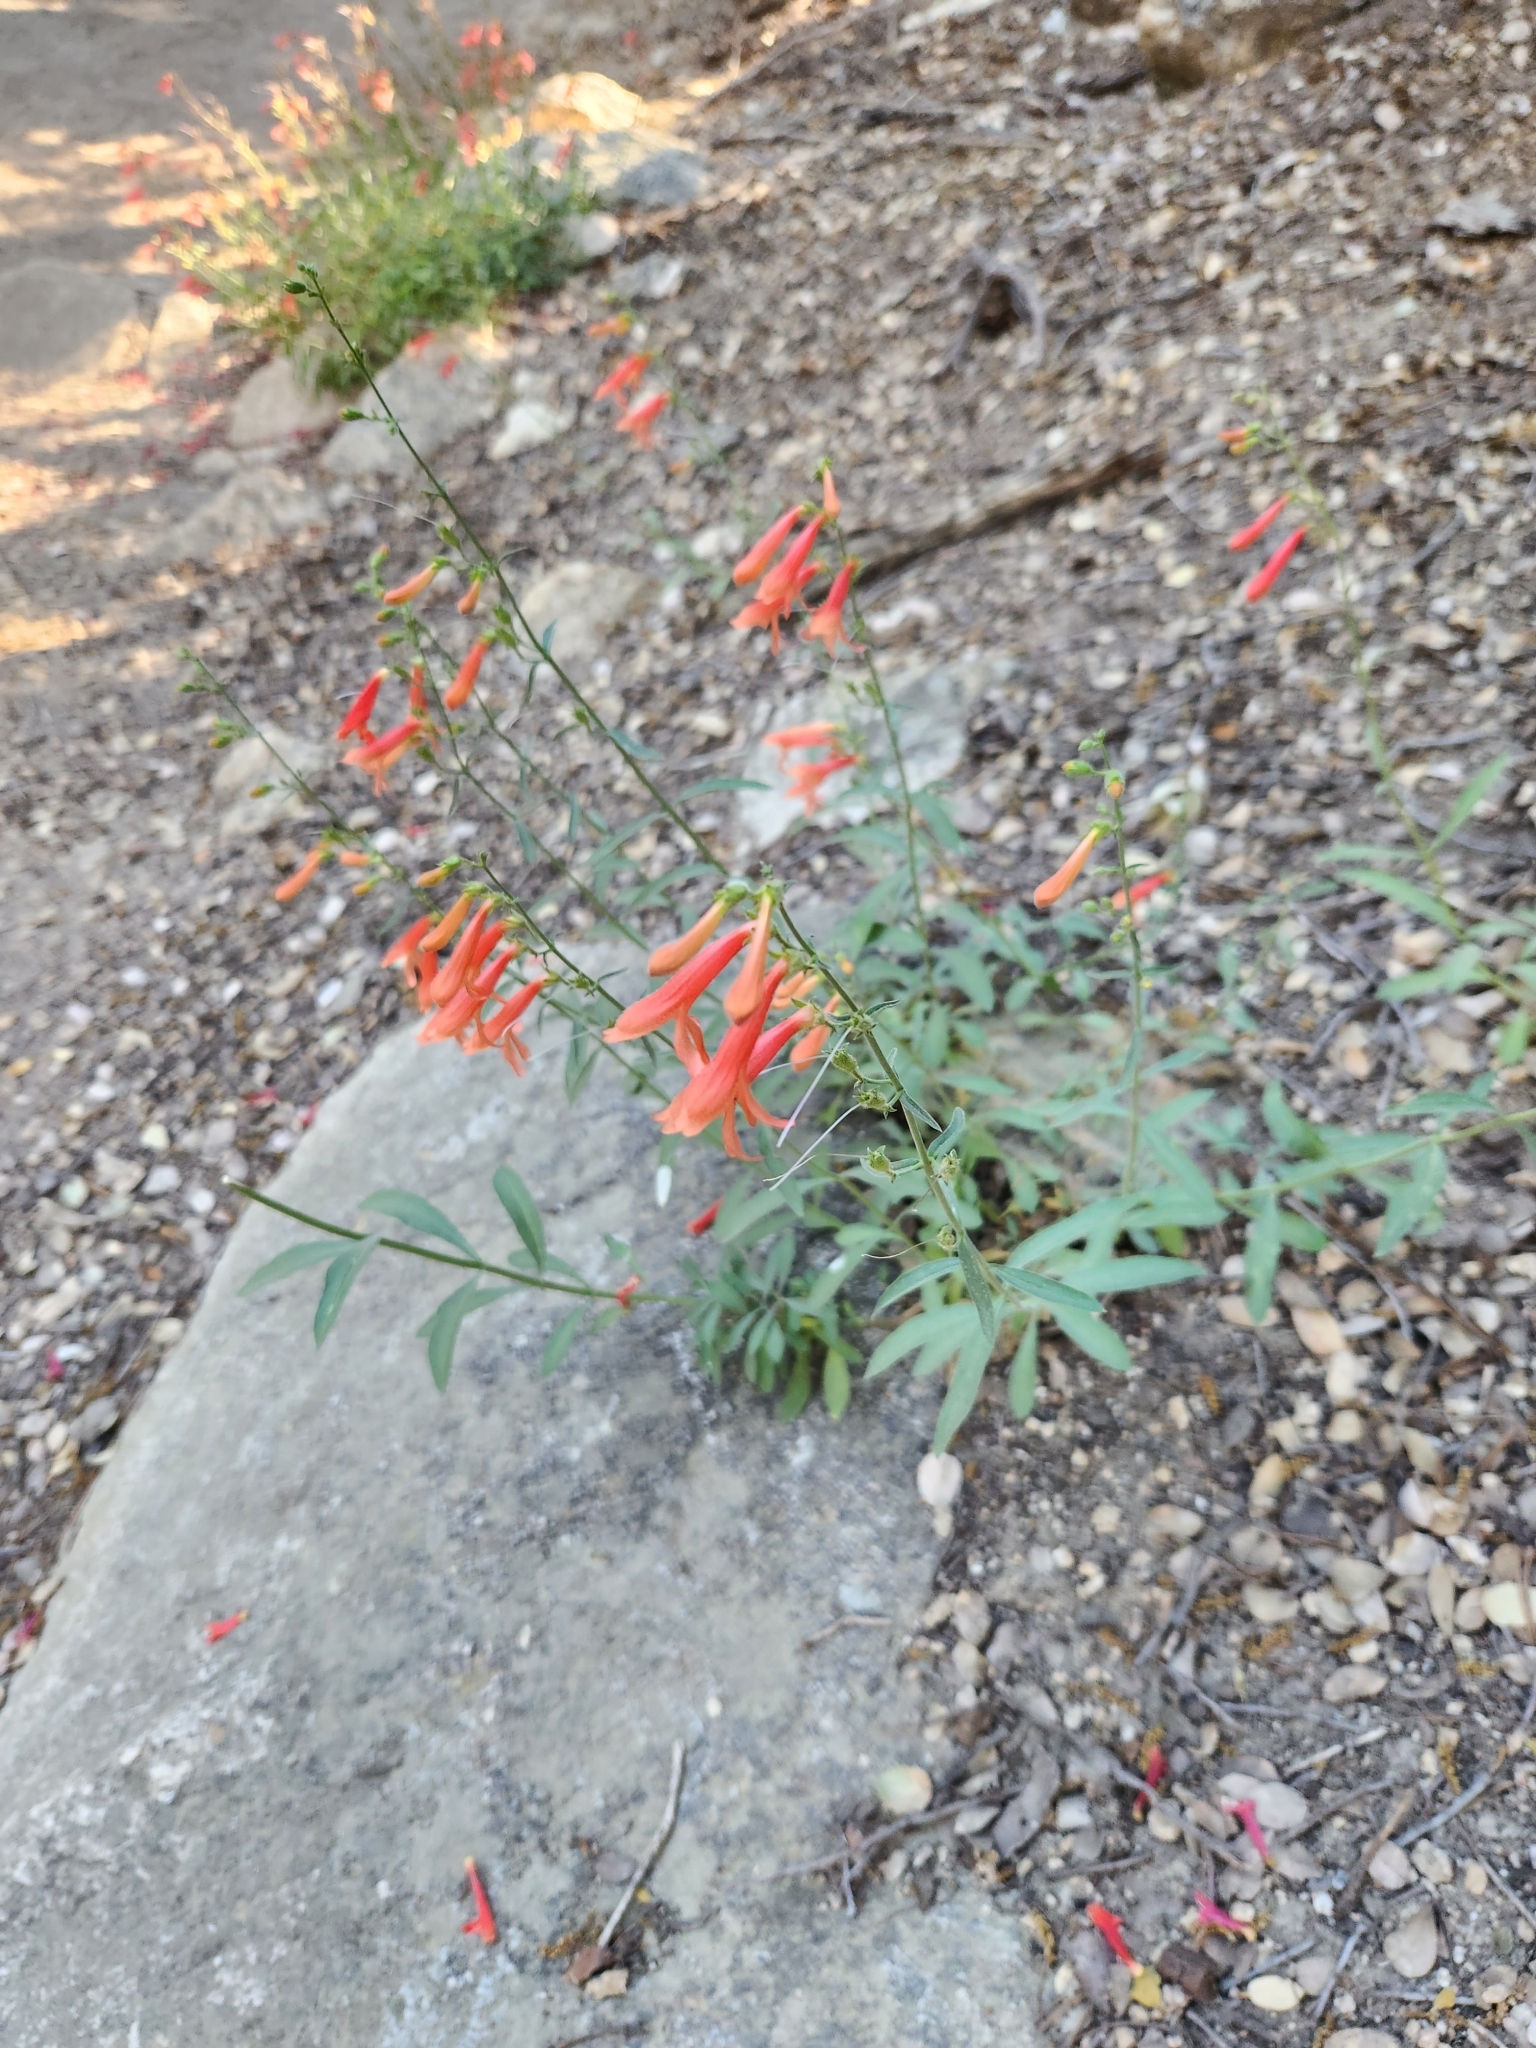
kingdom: Plantae
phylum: Tracheophyta
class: Magnoliopsida
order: Lamiales
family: Plantaginaceae
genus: Penstemon
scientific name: Penstemon rostriflorus
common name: Bridges's penstemon
